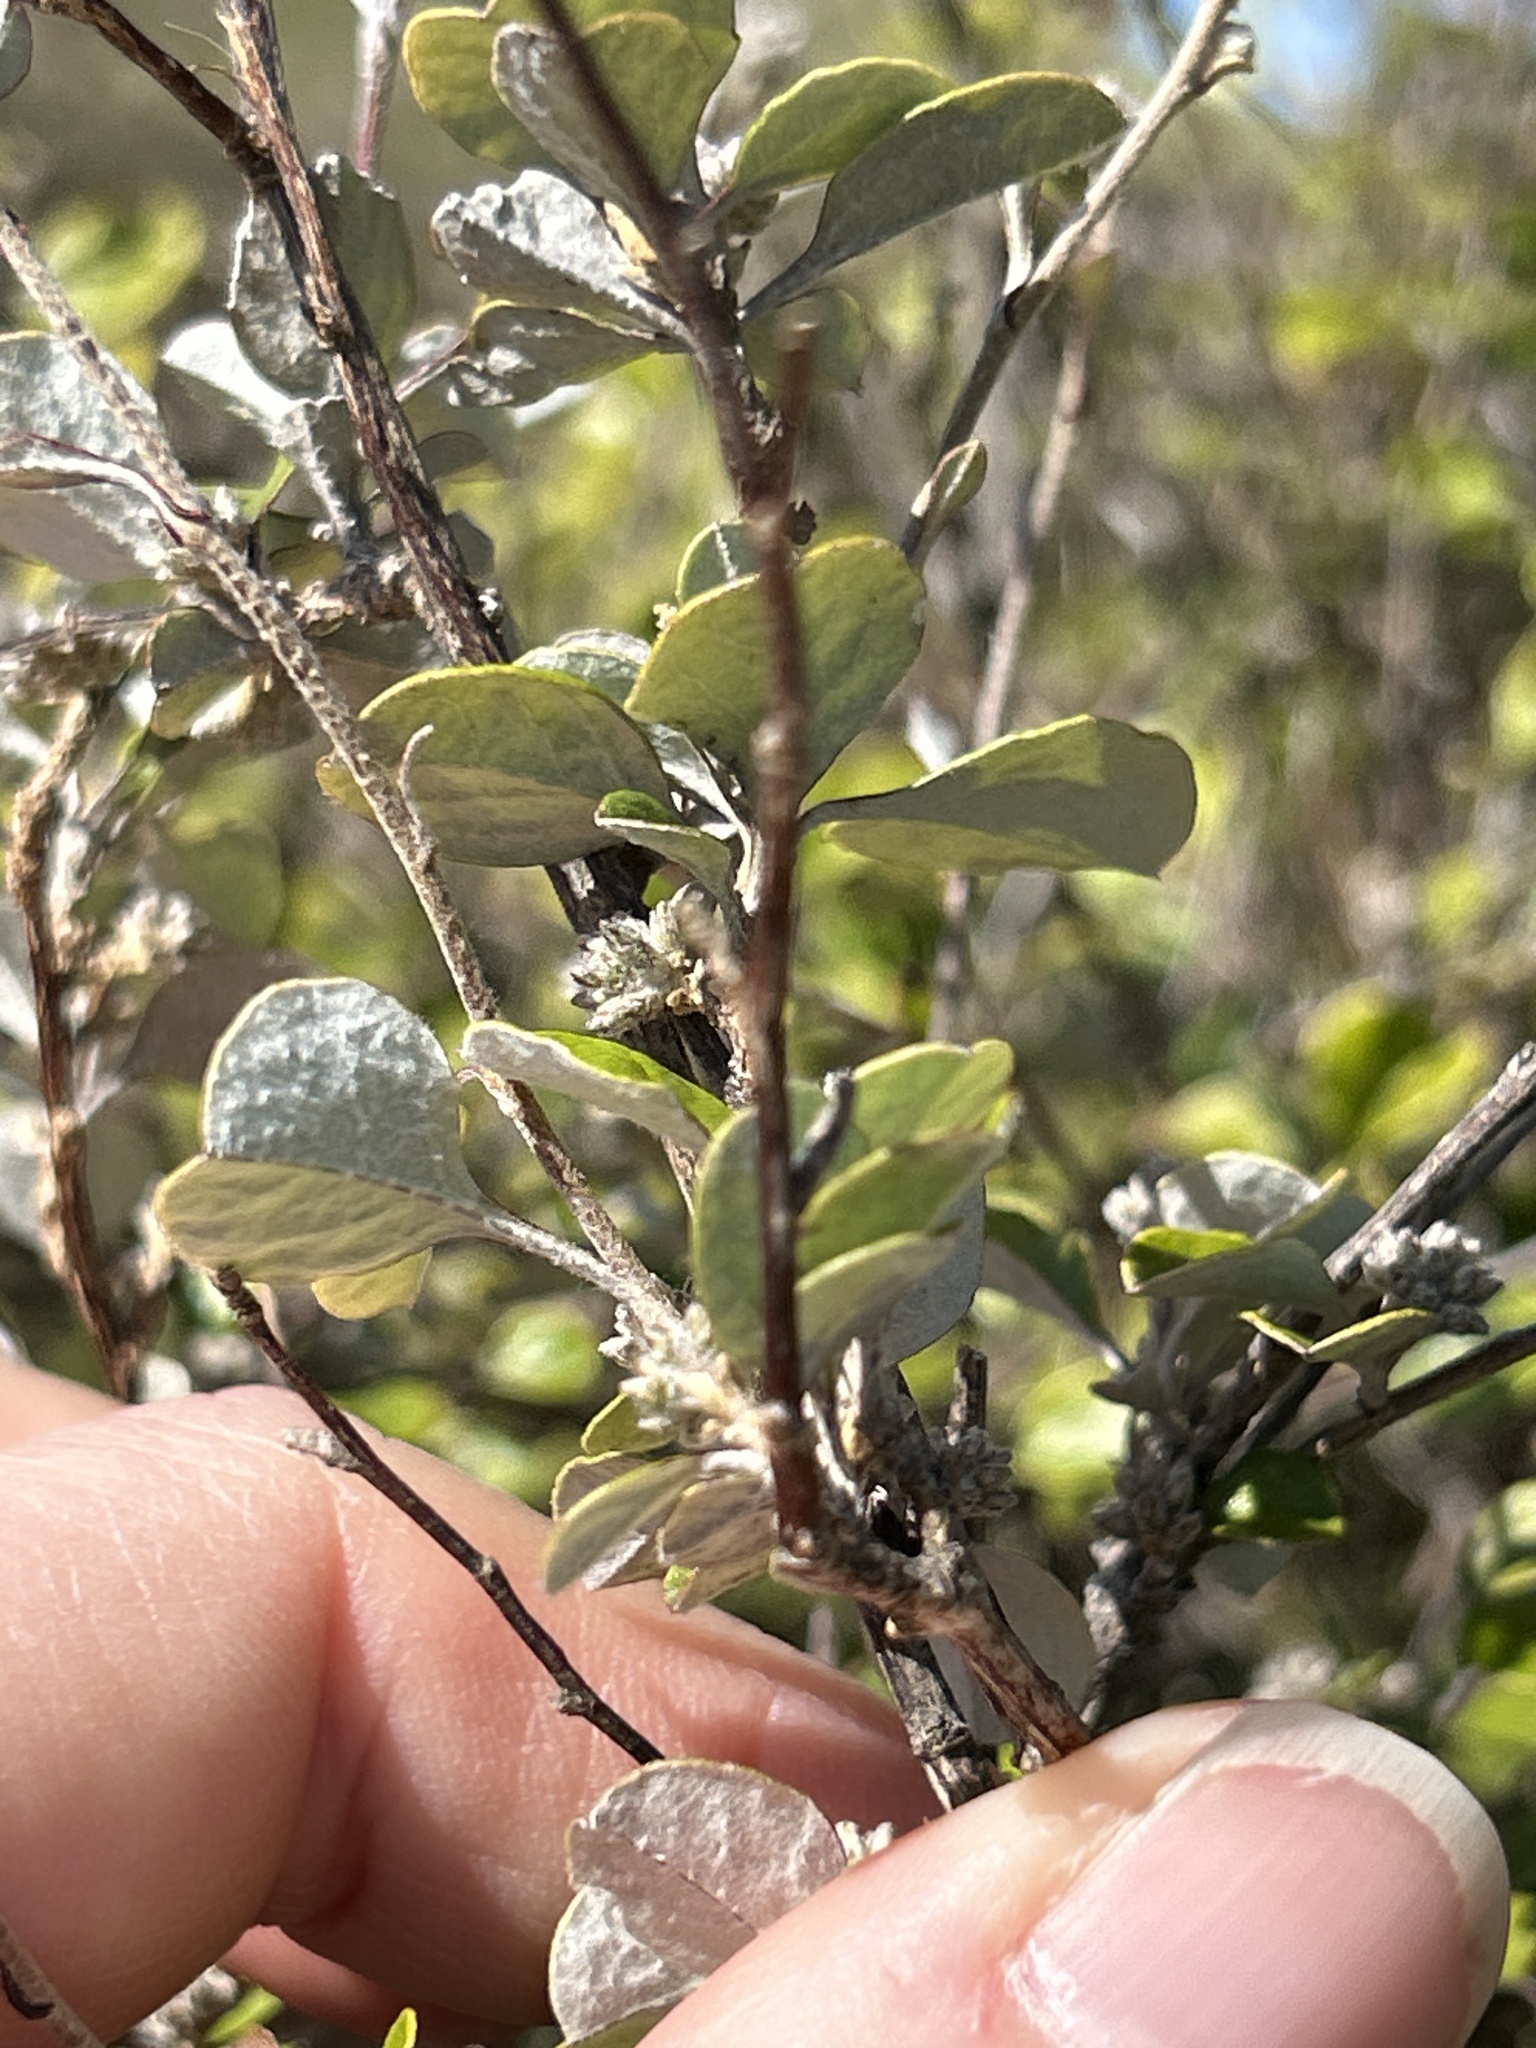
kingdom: Plantae
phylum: Tracheophyta
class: Magnoliopsida
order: Asterales
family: Asteraceae
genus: Ozothamnus
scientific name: Ozothamnus glomeratus
